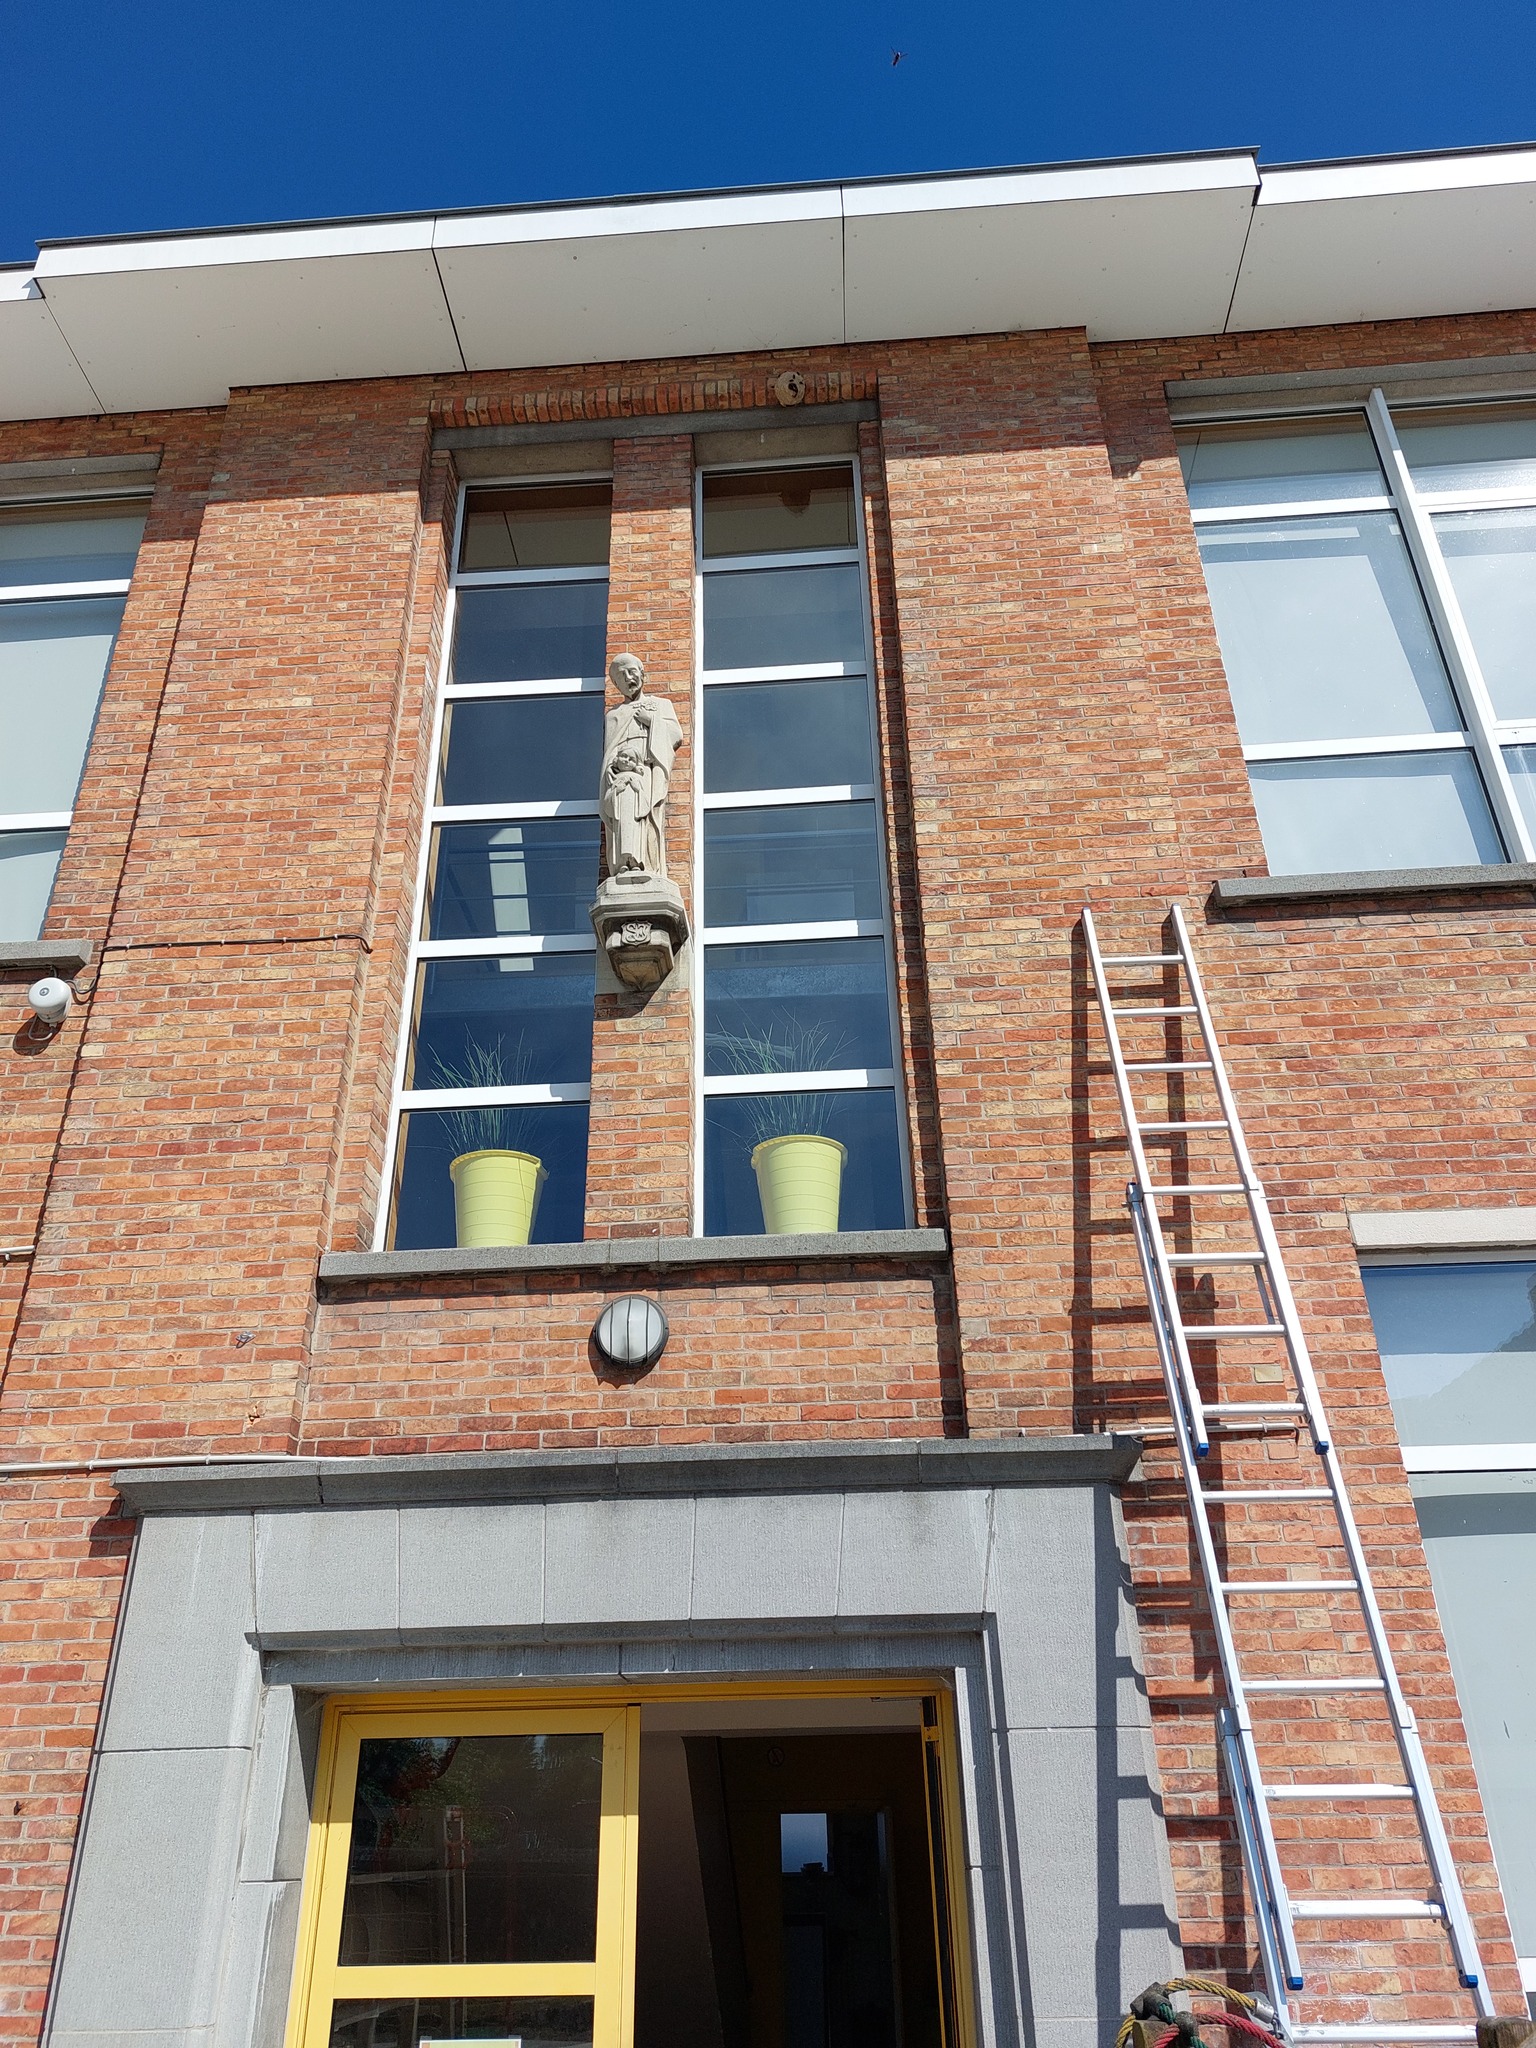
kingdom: Animalia
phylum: Arthropoda
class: Insecta
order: Hymenoptera
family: Vespidae
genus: Vespa
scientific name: Vespa velutina
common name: Asian hornet
